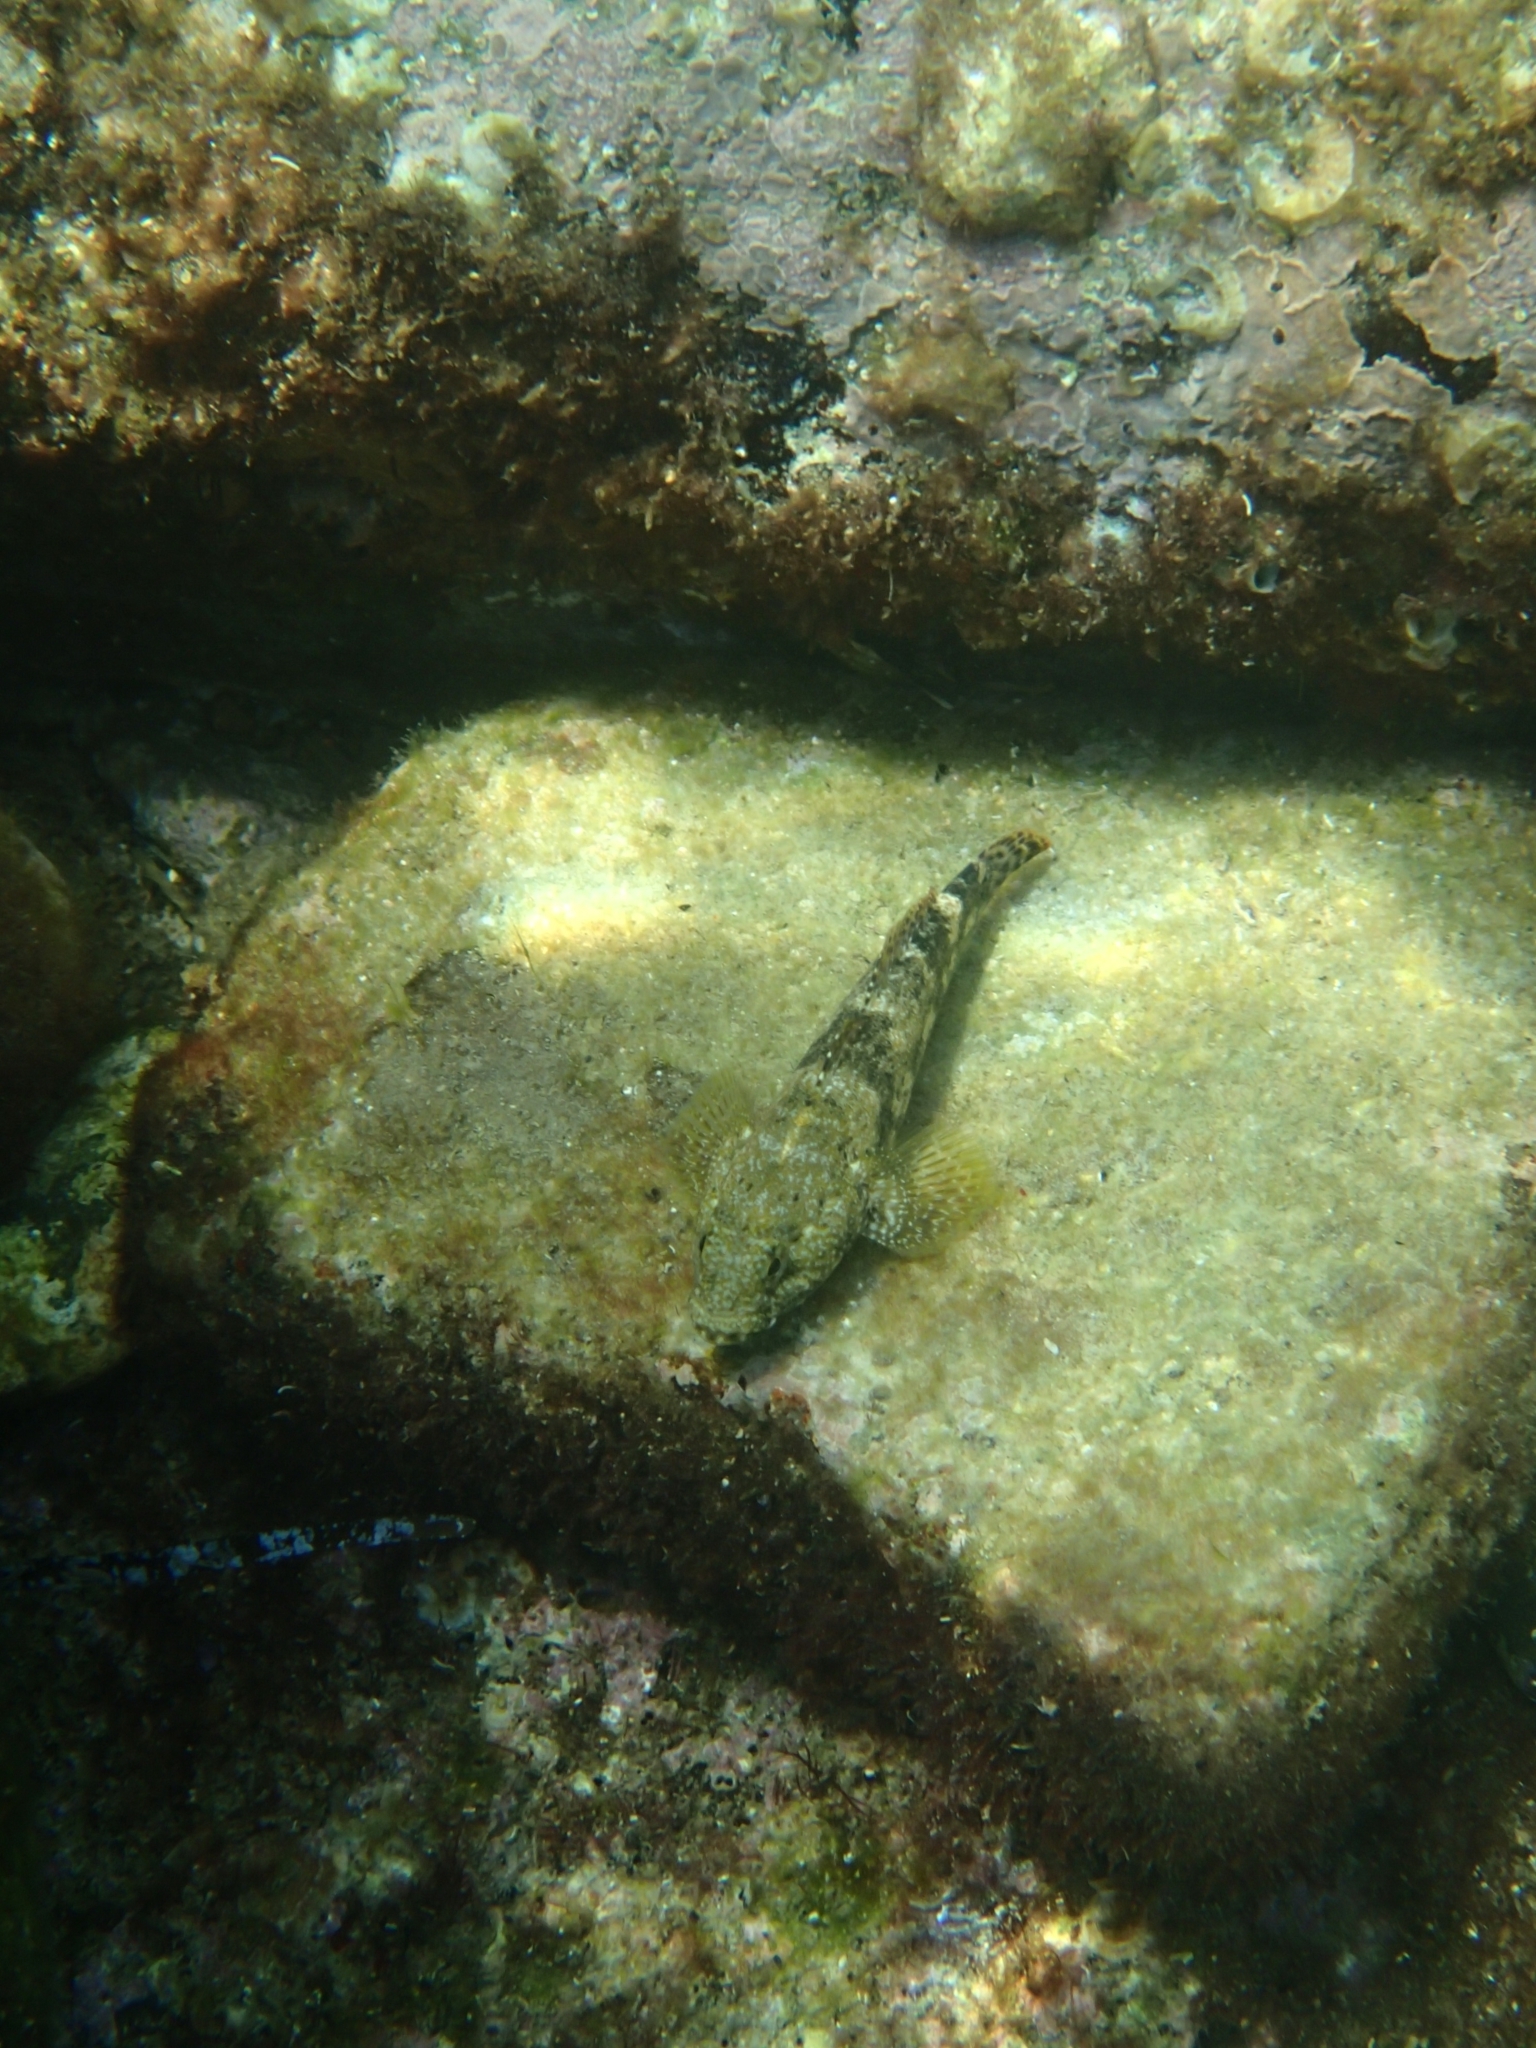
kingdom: Animalia
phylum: Chordata
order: Perciformes
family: Gobiidae
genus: Gobius
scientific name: Gobius cobitis
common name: Giant goby
